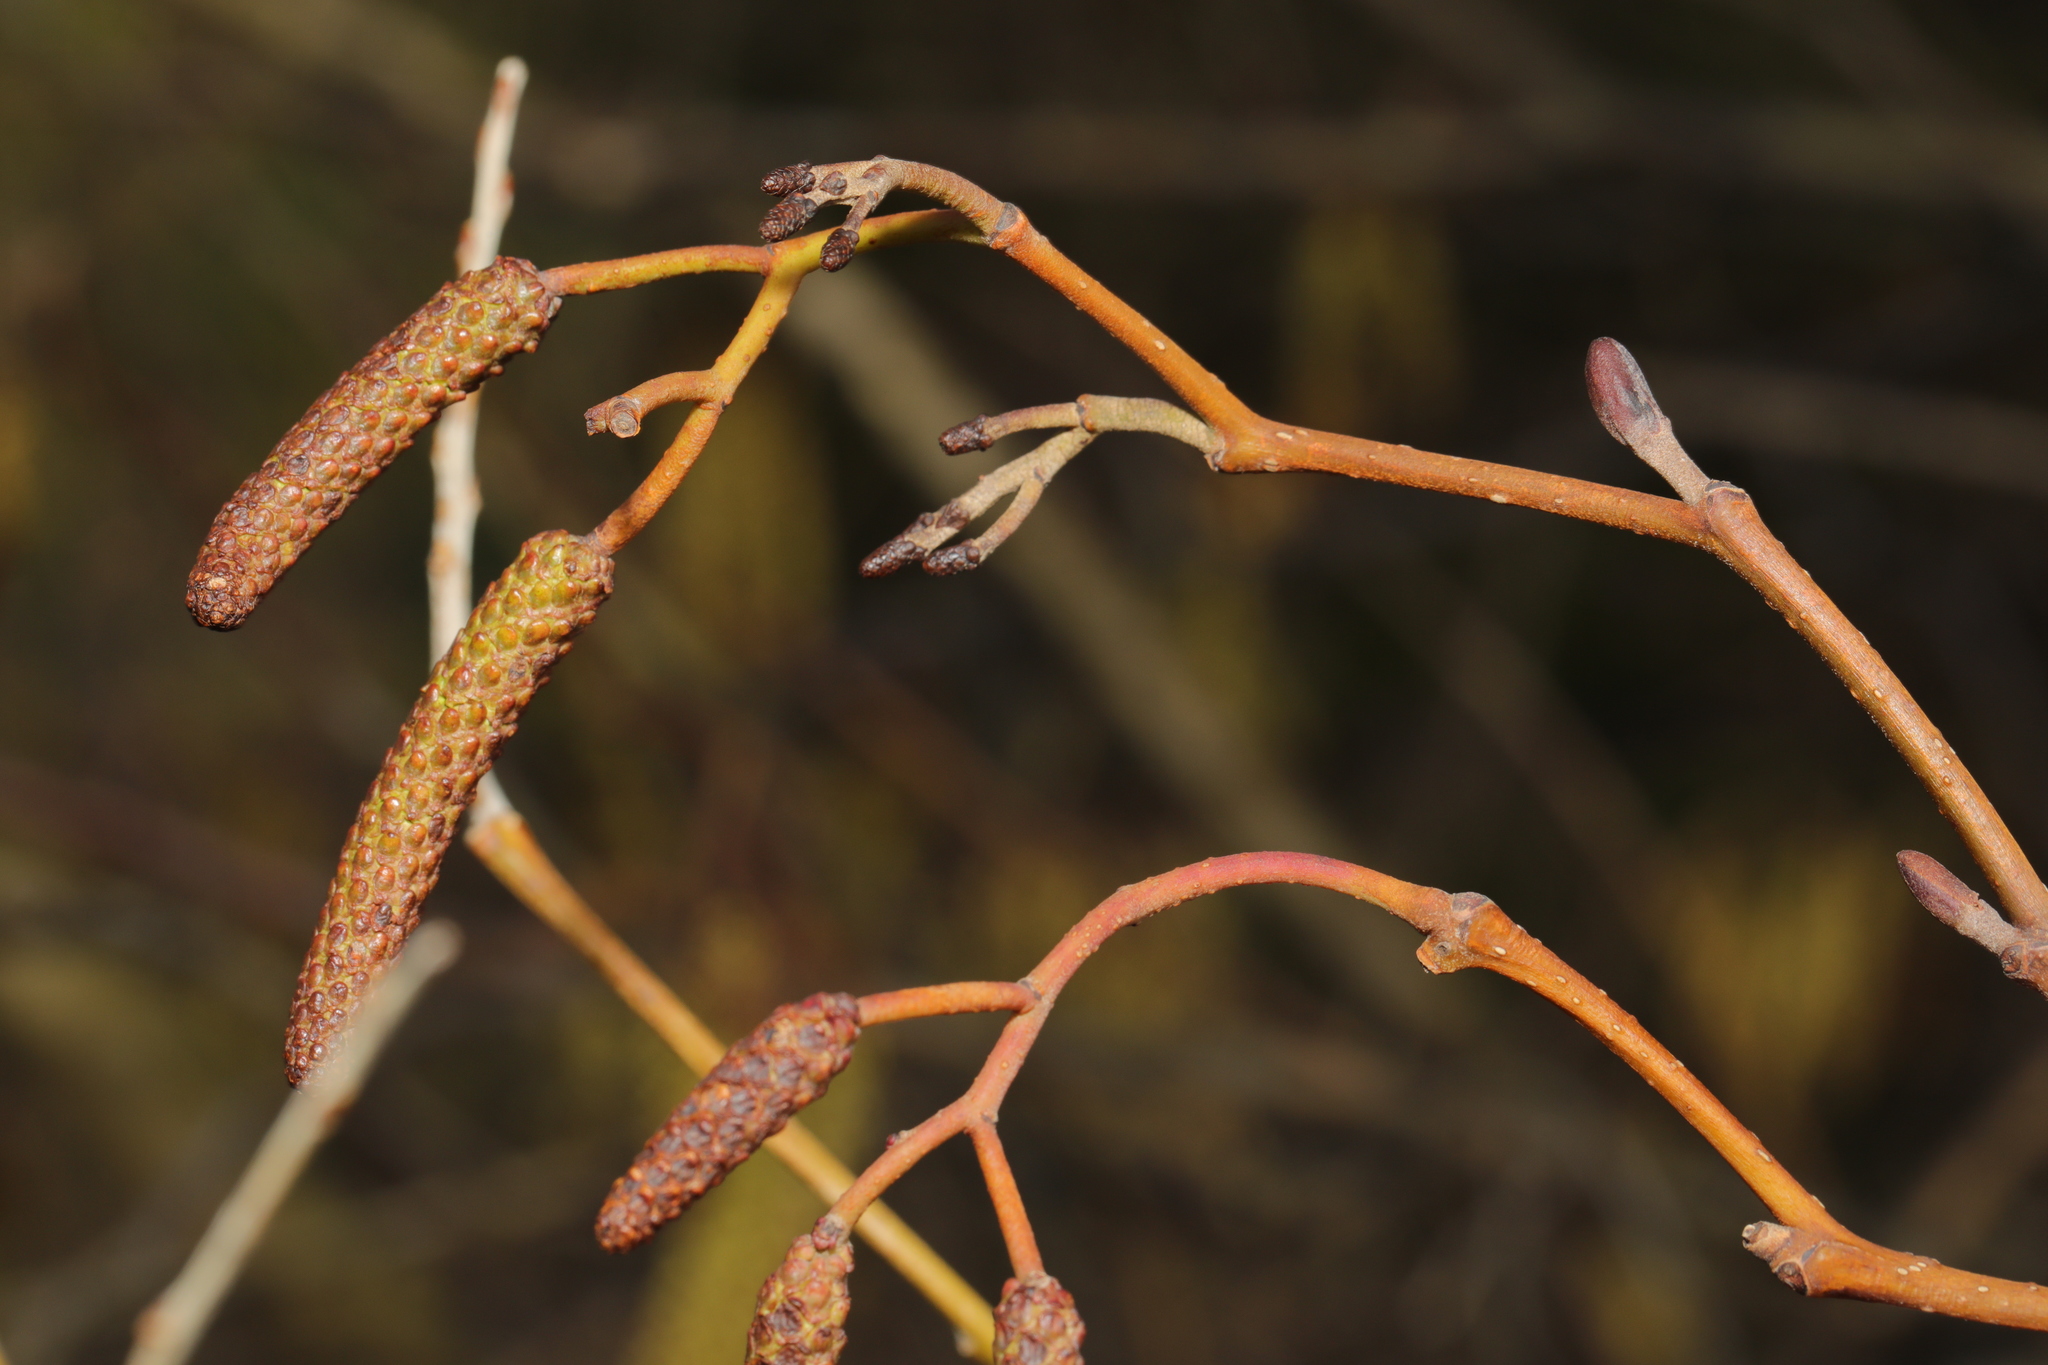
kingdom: Plantae
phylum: Tracheophyta
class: Magnoliopsida
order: Fagales
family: Betulaceae
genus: Alnus
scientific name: Alnus glutinosa
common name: Black alder
